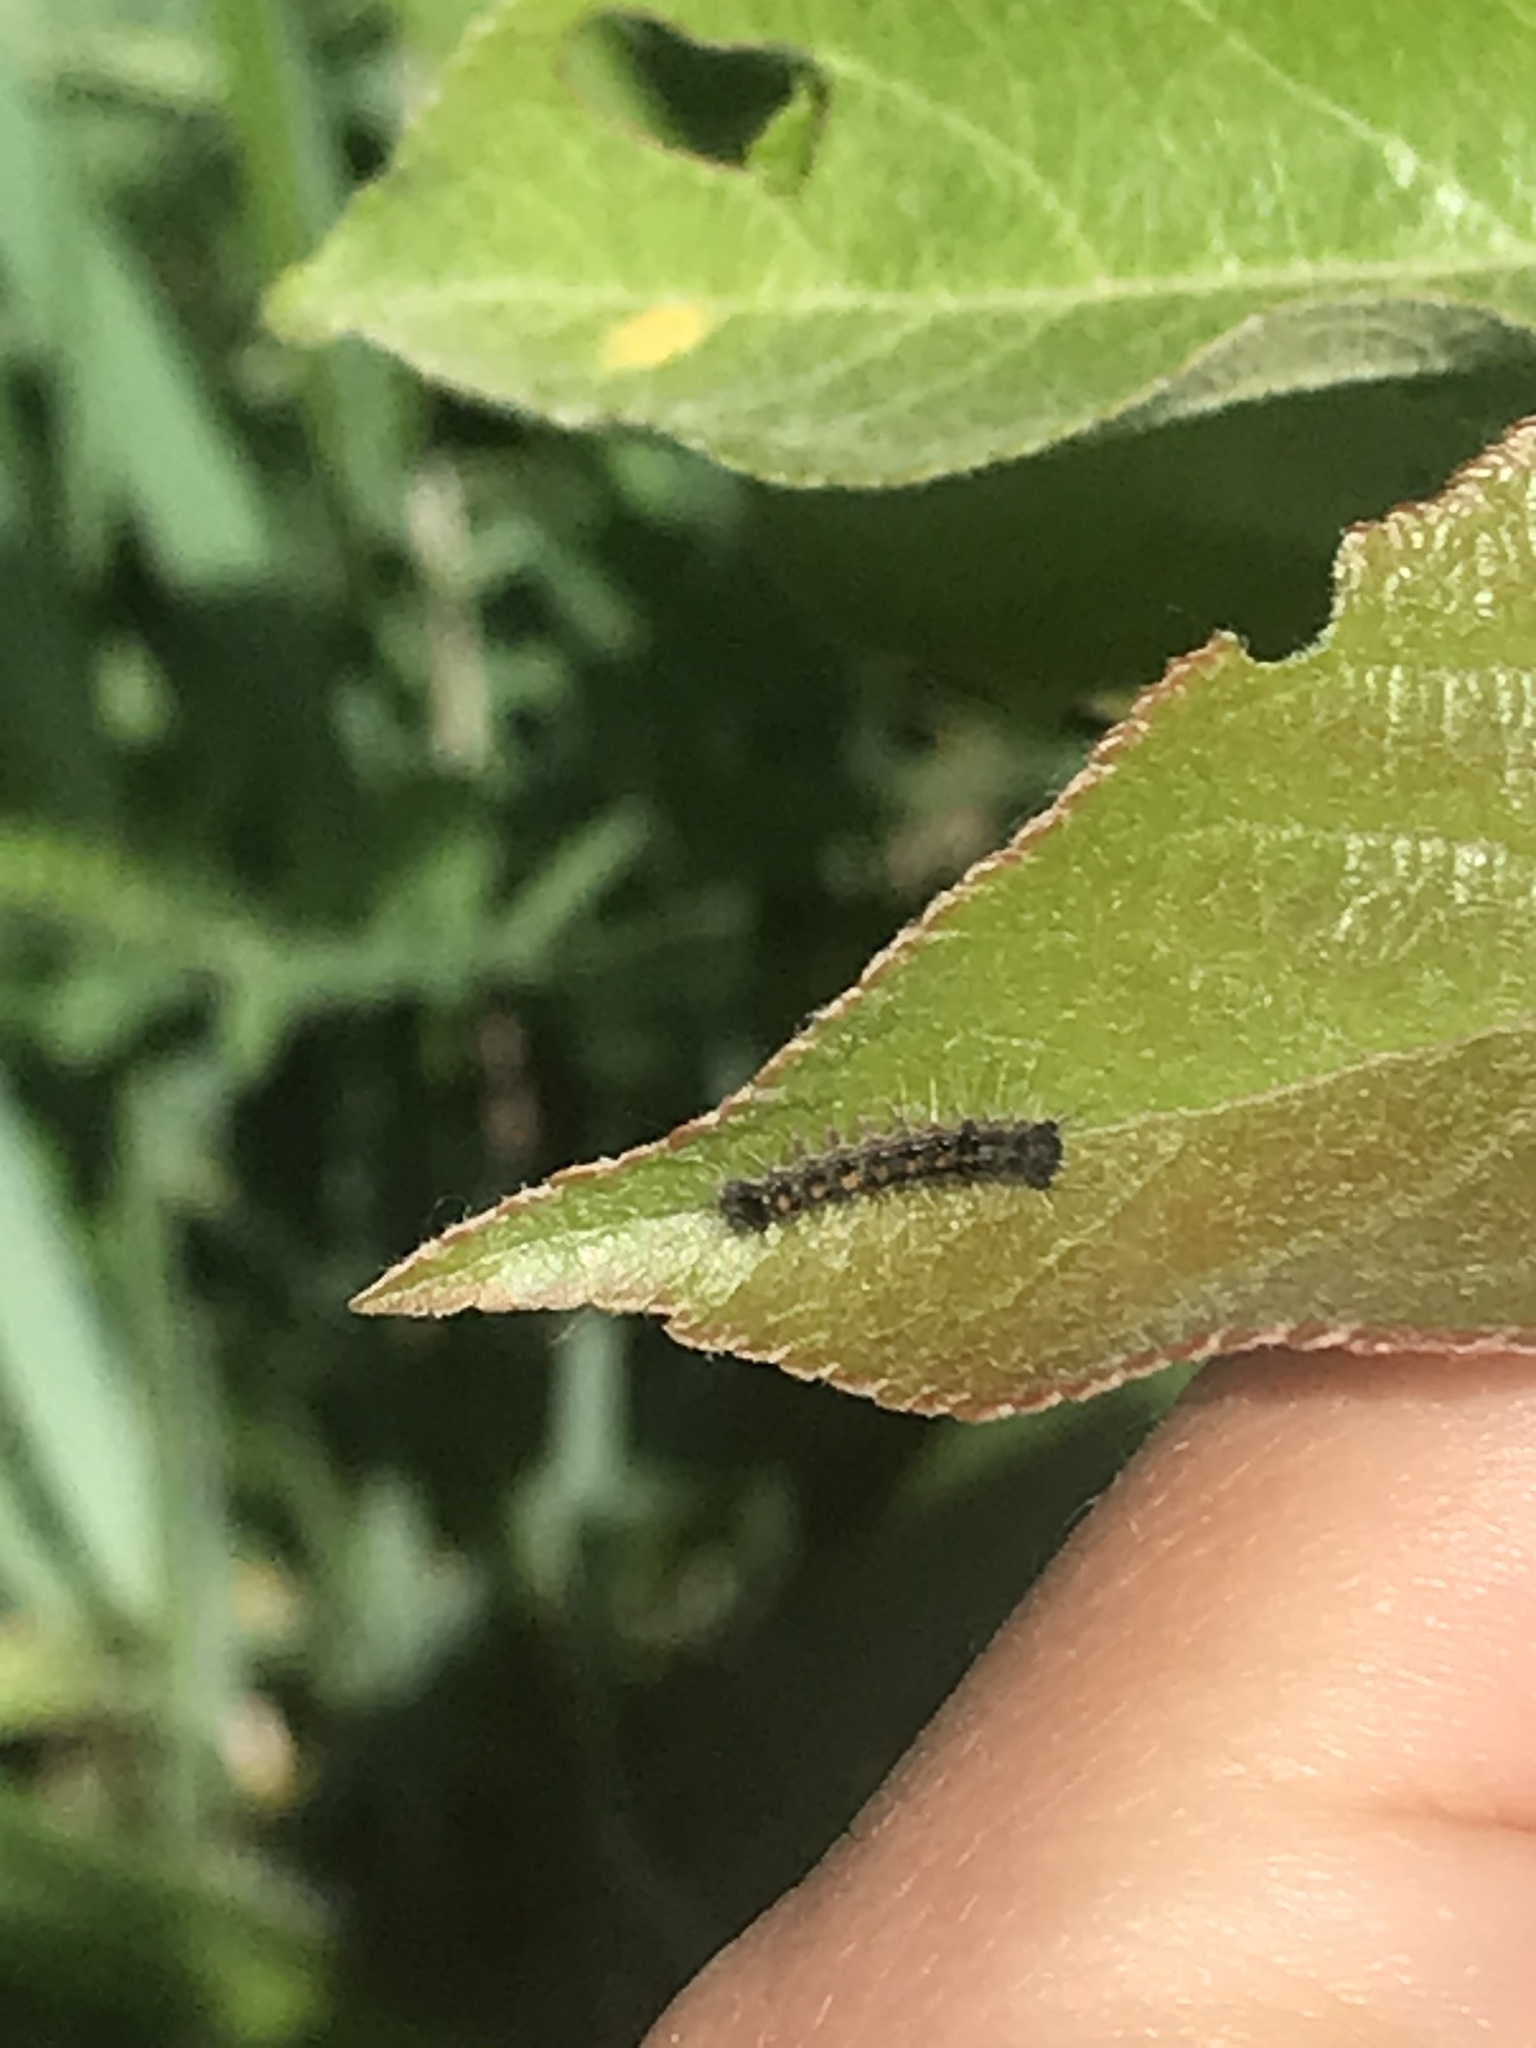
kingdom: Animalia
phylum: Arthropoda
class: Insecta
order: Lepidoptera
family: Erebidae
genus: Lymantria
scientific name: Lymantria dispar
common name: Gypsy moth
